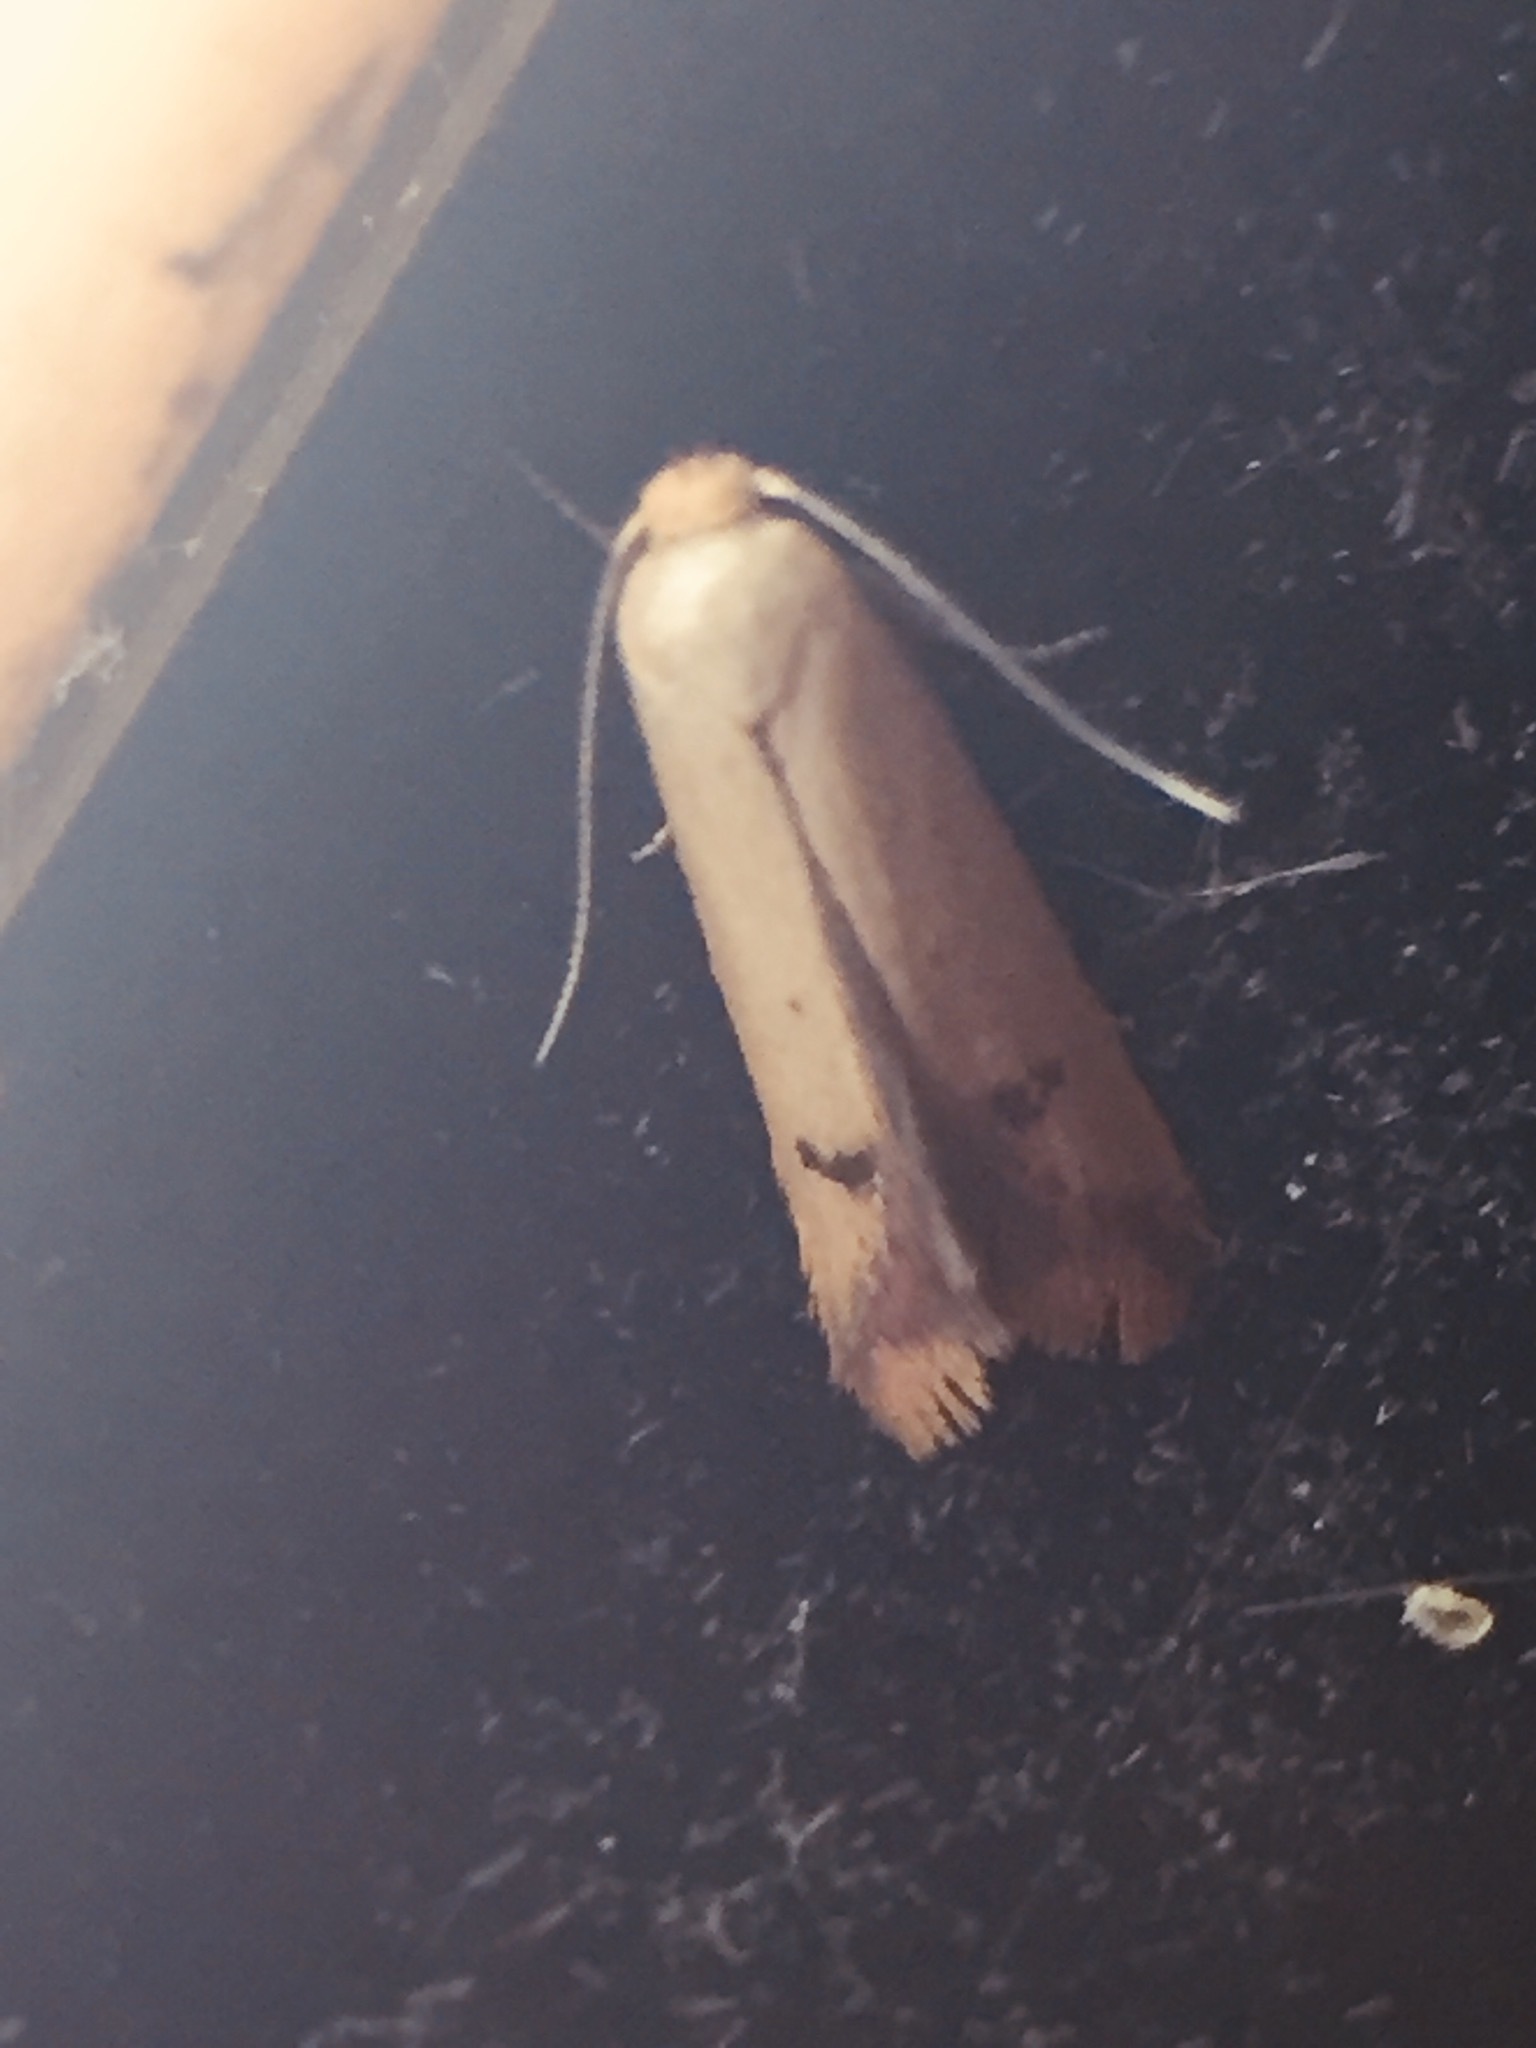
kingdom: Animalia
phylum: Arthropoda
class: Insecta
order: Lepidoptera
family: Oecophoridae
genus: Tachystola
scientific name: Tachystola hemisema
